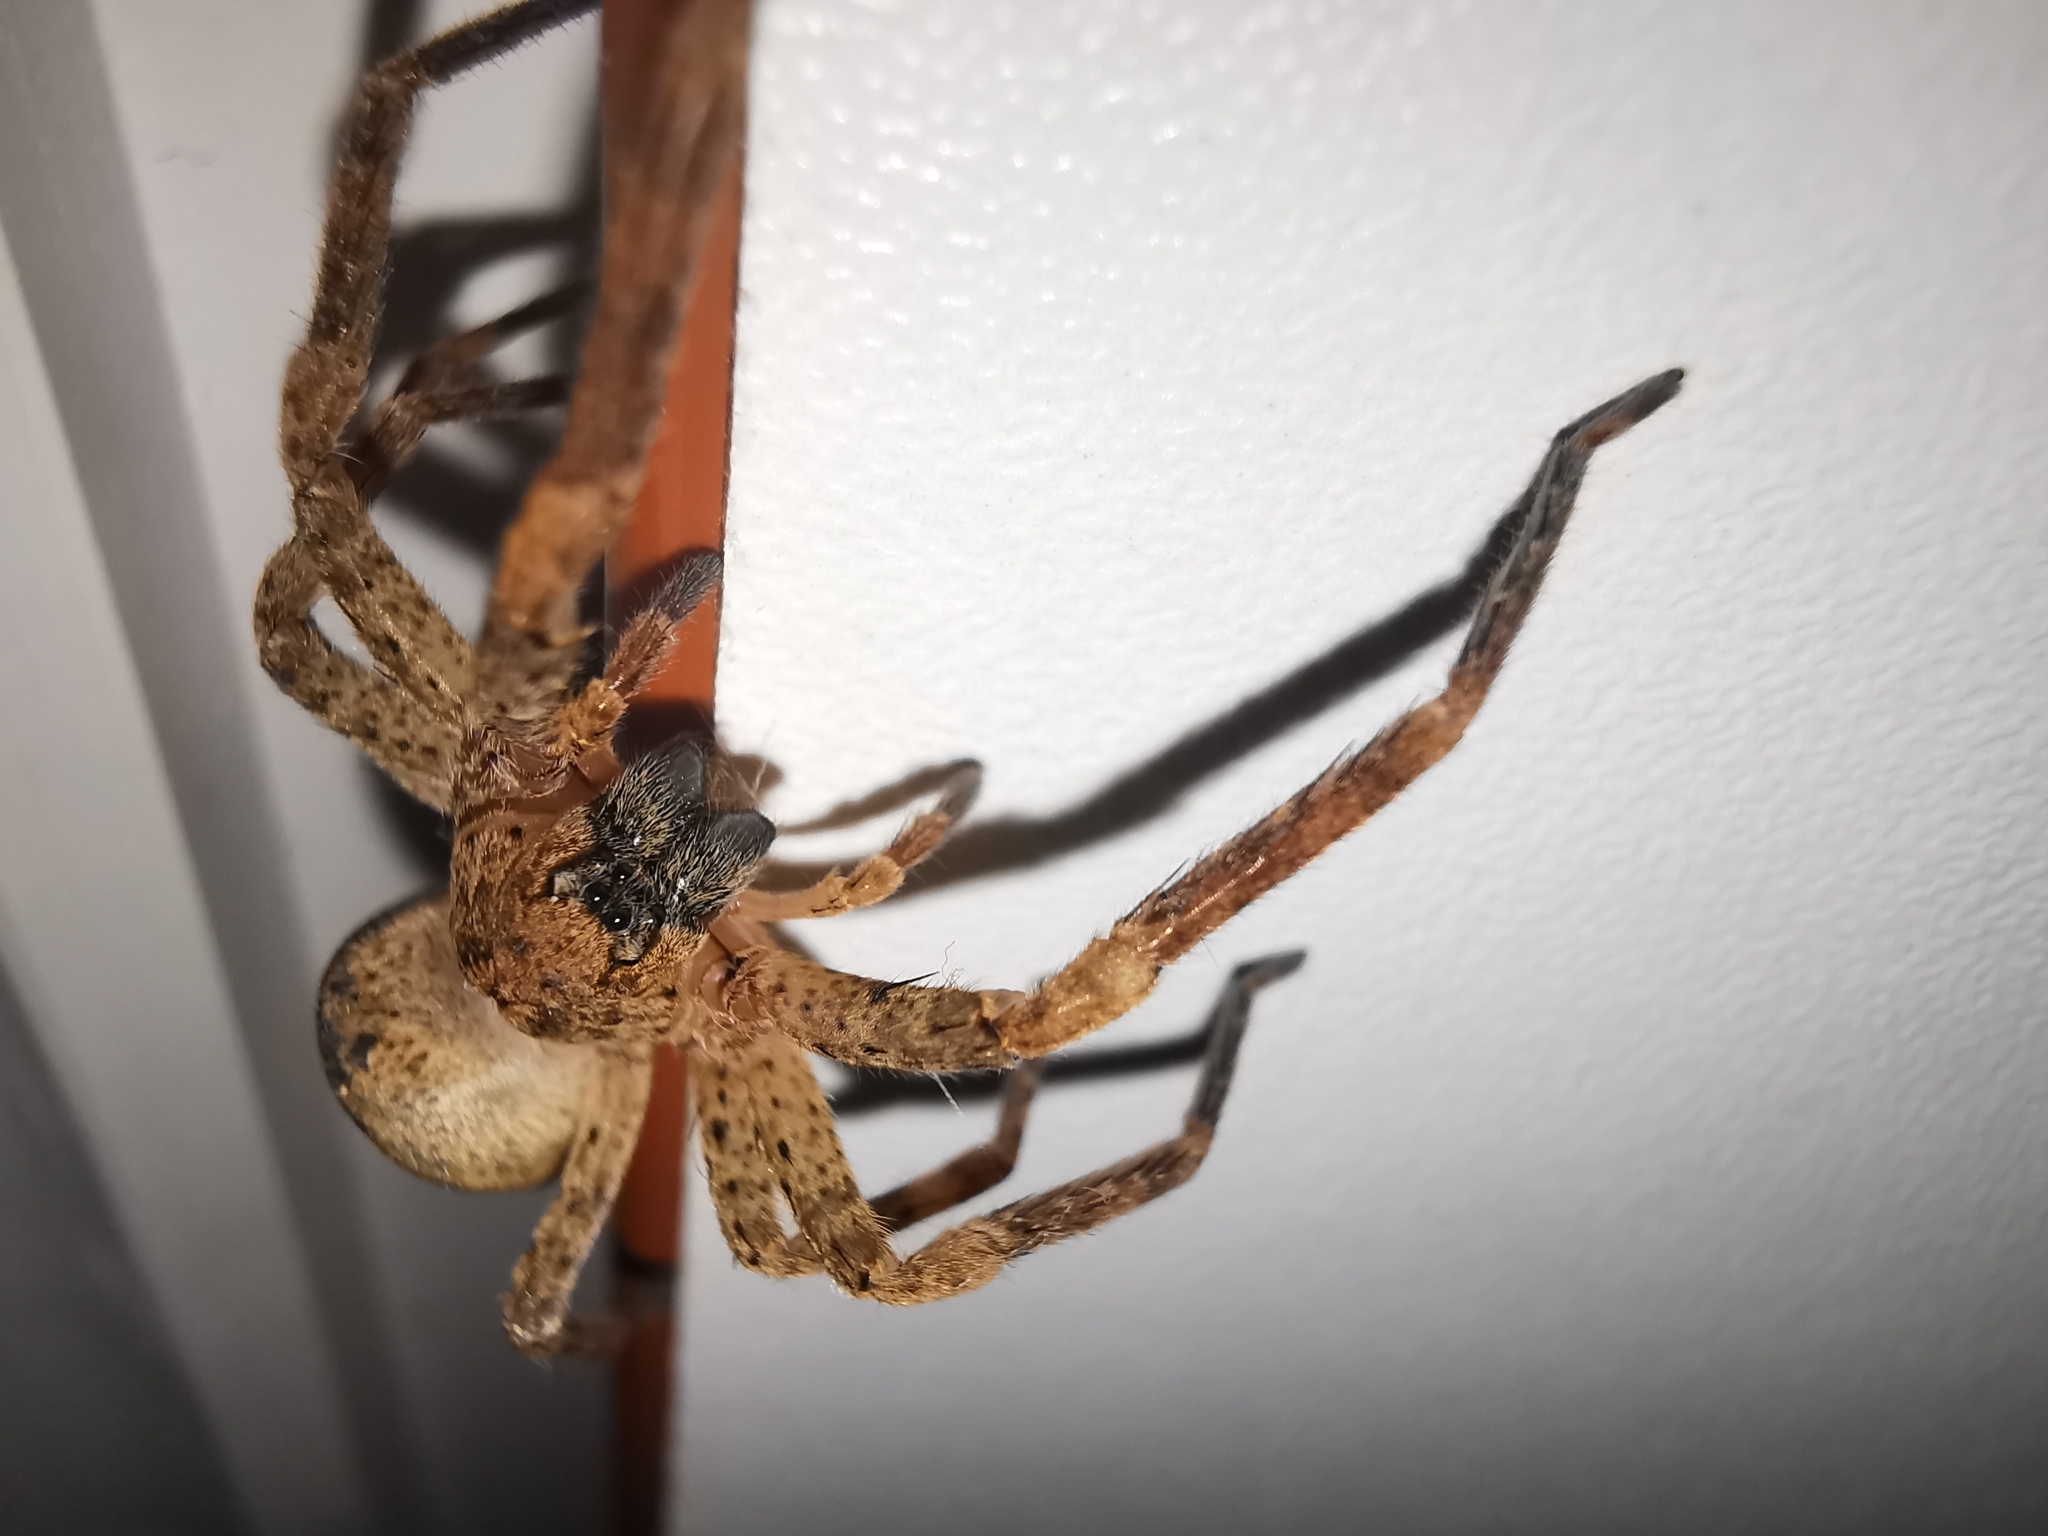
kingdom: Animalia
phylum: Arthropoda
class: Arachnida
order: Araneae
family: Zoropsidae
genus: Zoropsis
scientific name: Zoropsis
